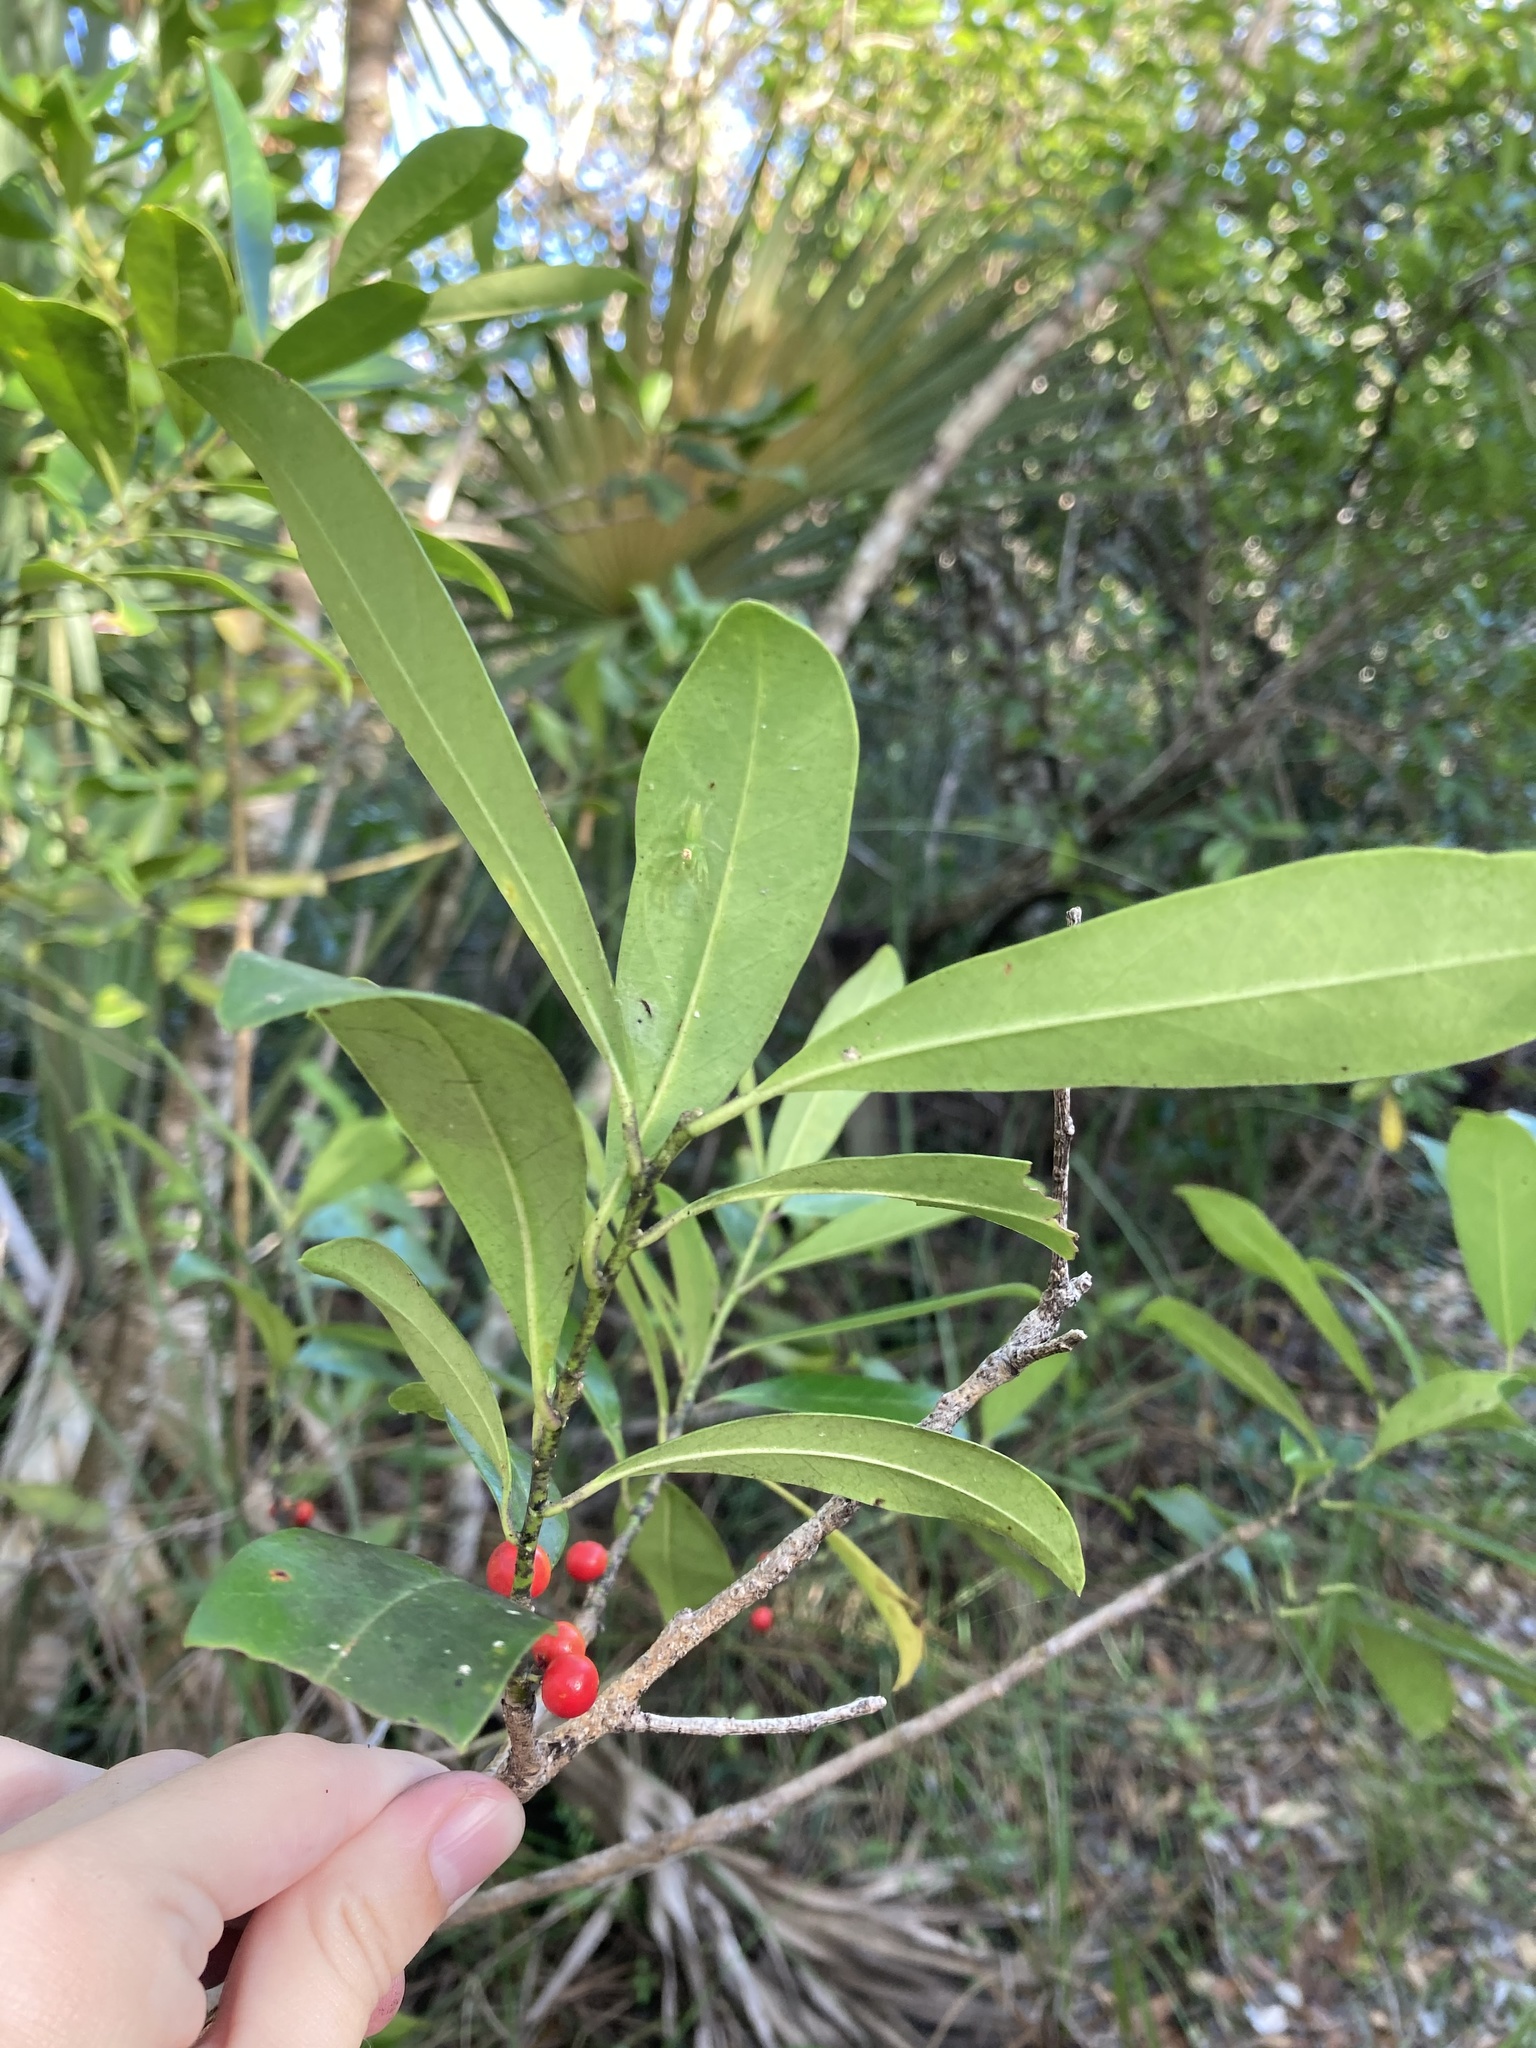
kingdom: Plantae
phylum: Tracheophyta
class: Magnoliopsida
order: Aquifoliales
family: Aquifoliaceae
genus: Ilex
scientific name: Ilex cassine
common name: Dahoon
